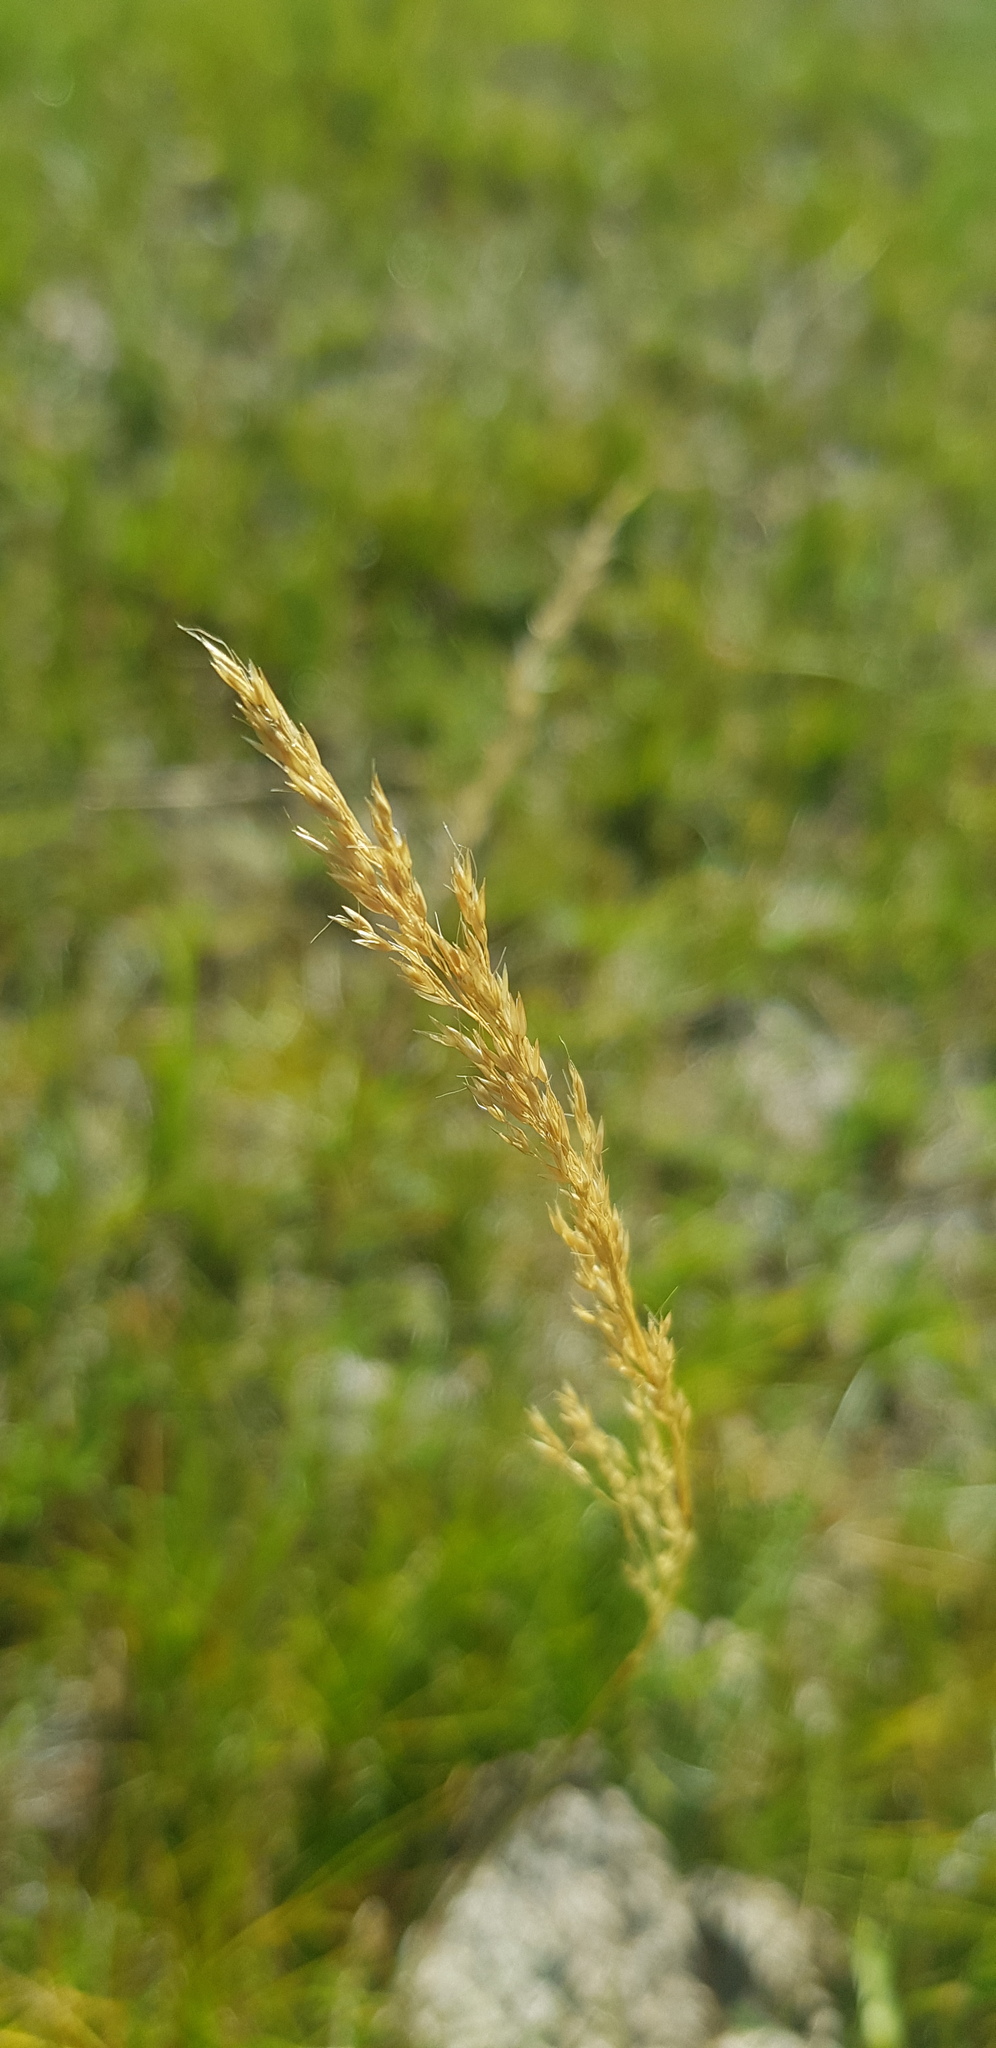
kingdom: Plantae
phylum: Tracheophyta
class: Liliopsida
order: Poales
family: Poaceae
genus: Calamagrostis
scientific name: Calamagrostis stricta
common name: Narrow small-reed
